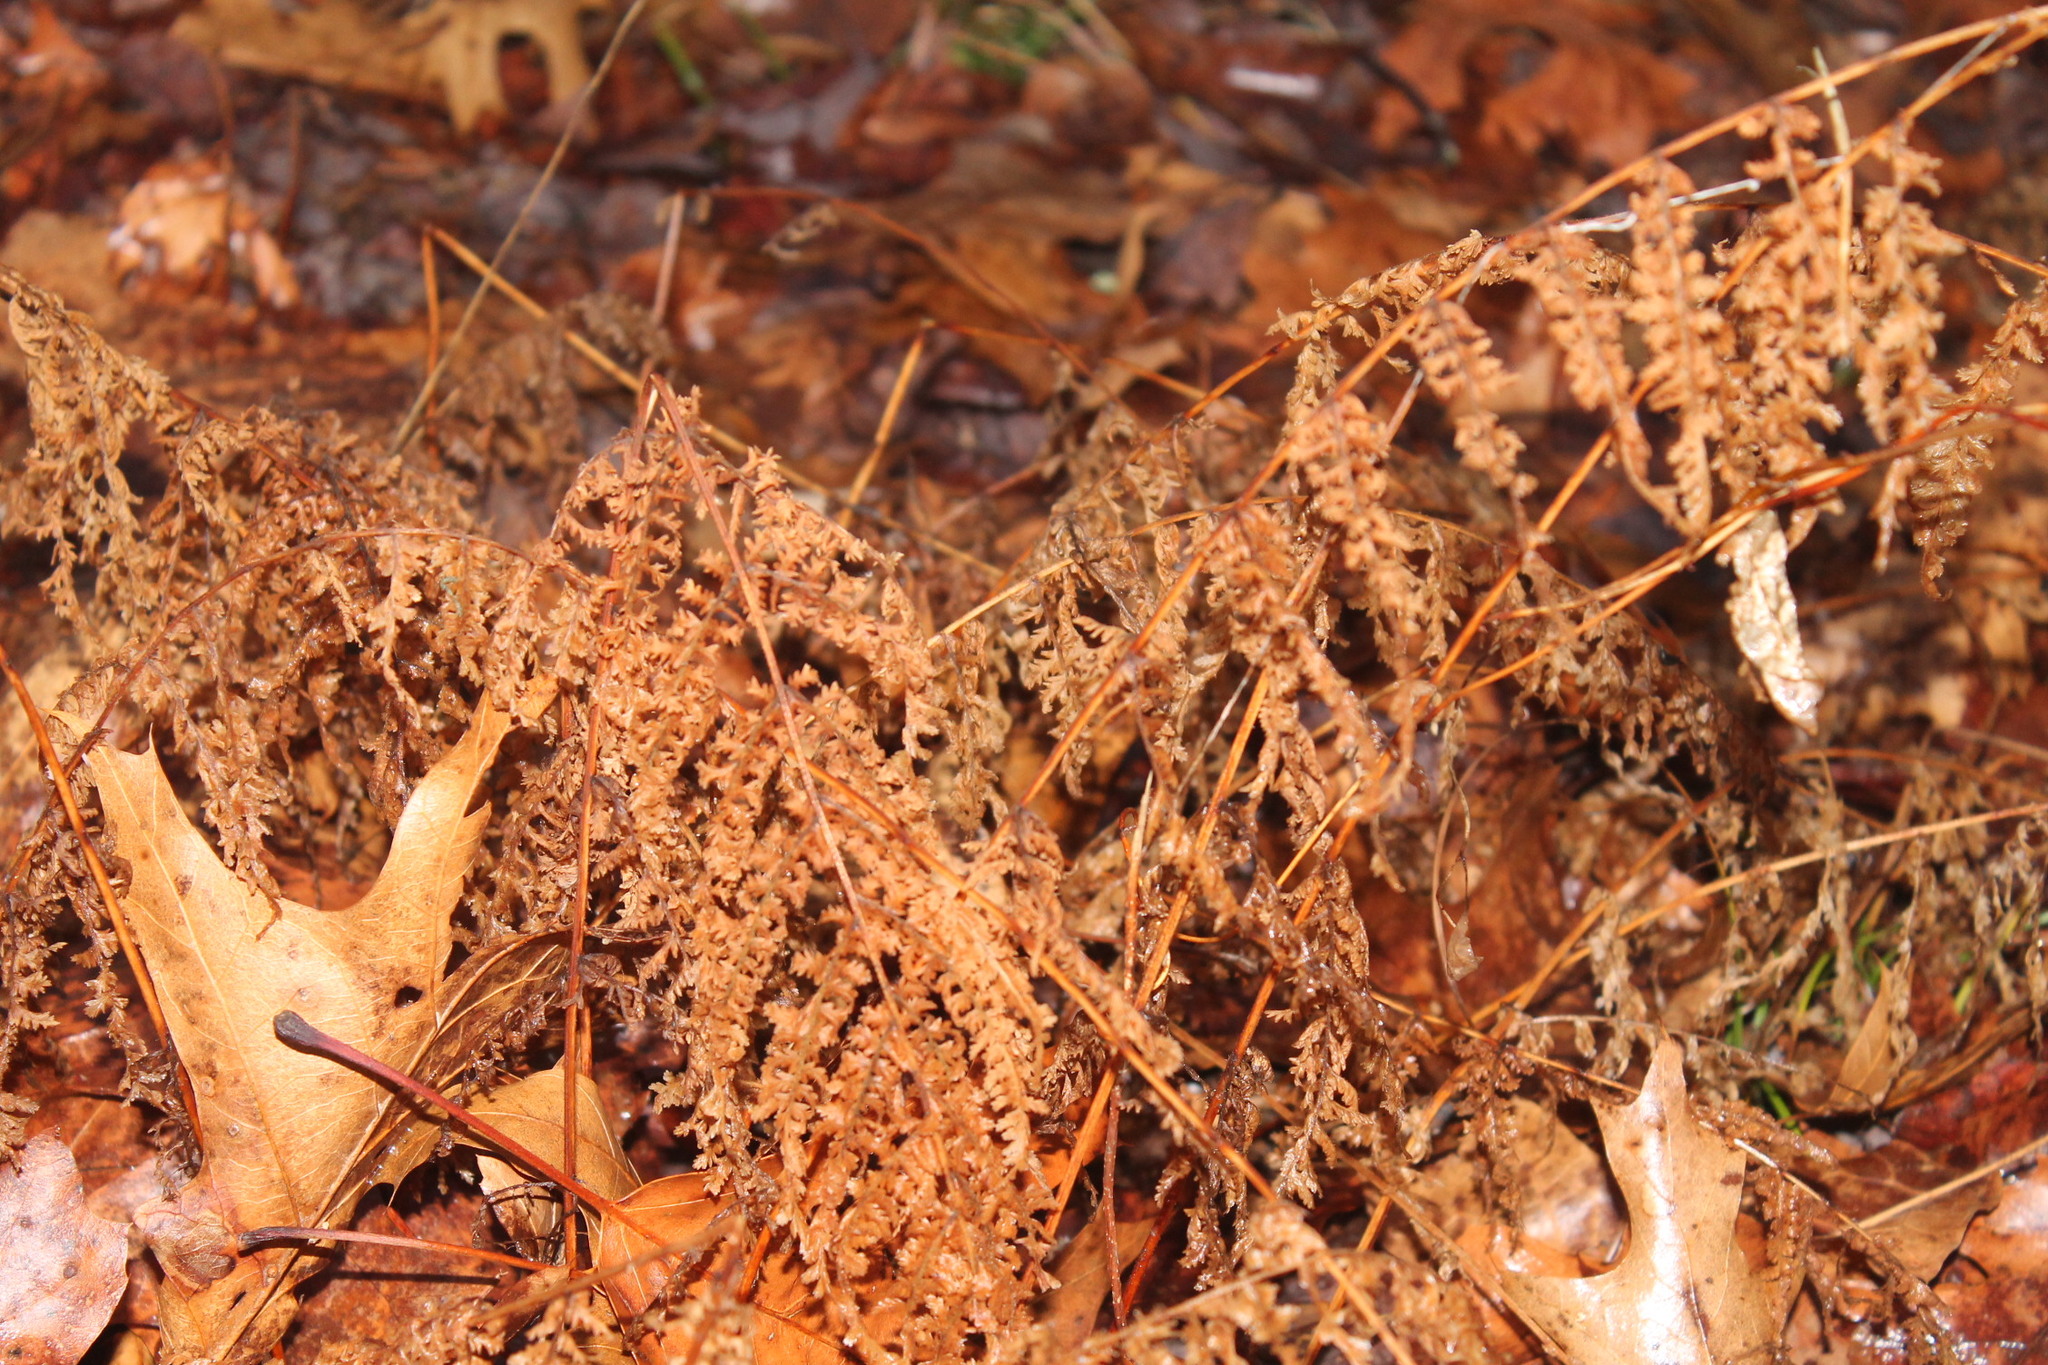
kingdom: Plantae
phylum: Tracheophyta
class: Polypodiopsida
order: Polypodiales
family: Dennstaedtiaceae
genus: Sitobolium
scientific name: Sitobolium punctilobum
